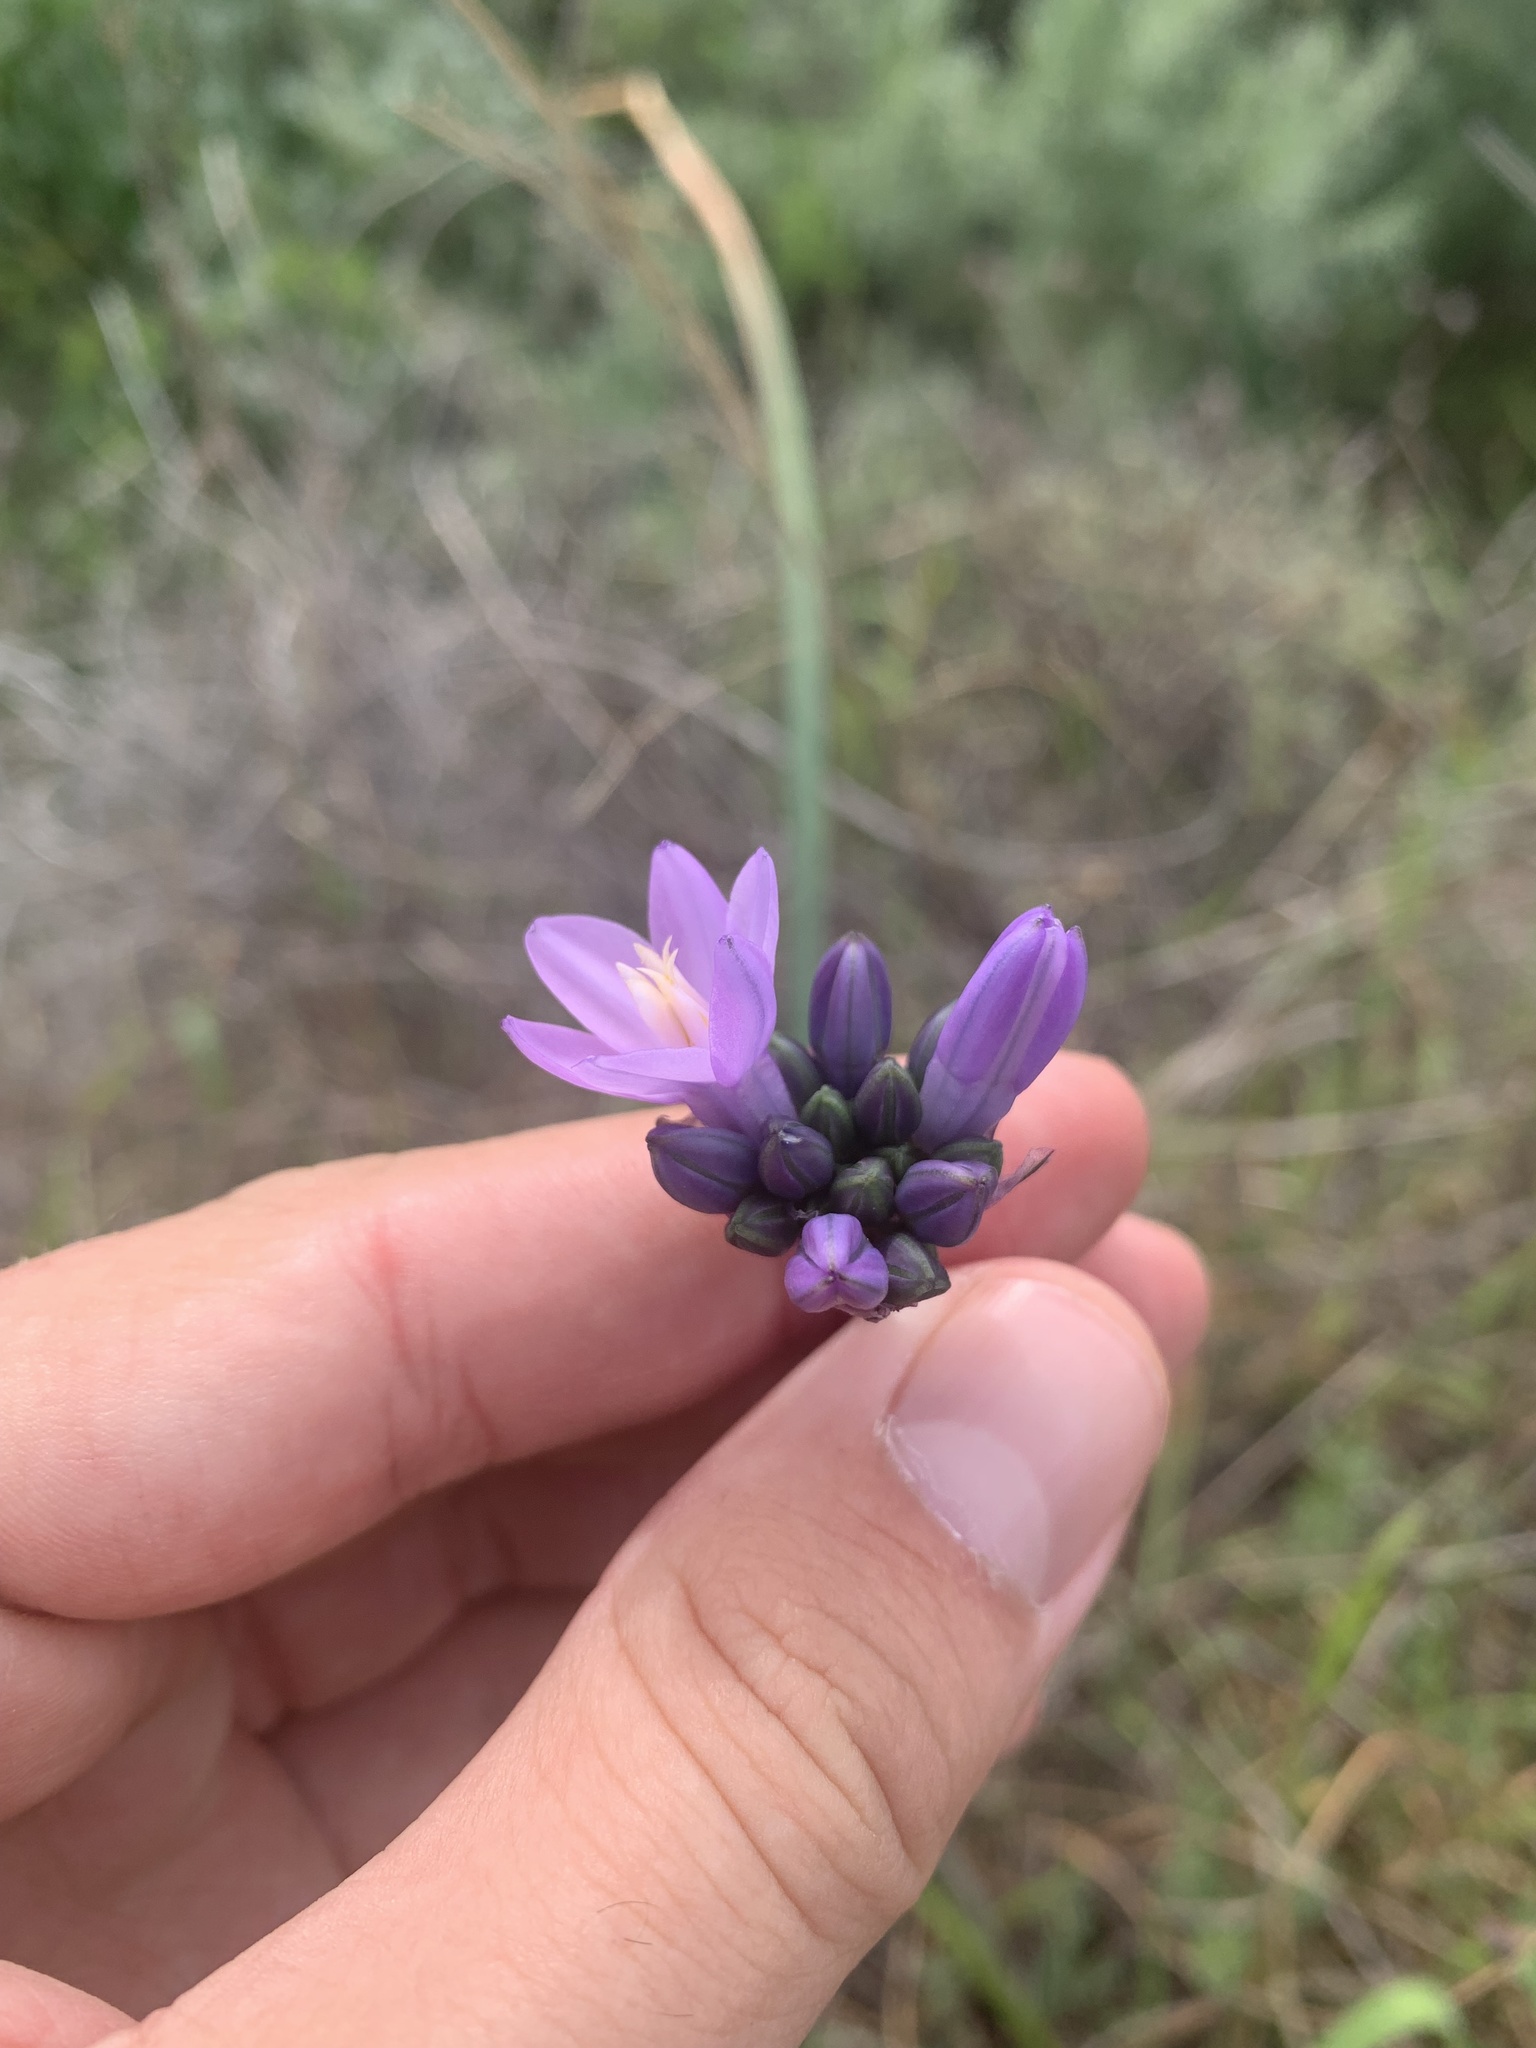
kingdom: Plantae
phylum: Tracheophyta
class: Liliopsida
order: Asparagales
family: Asparagaceae
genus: Dipterostemon
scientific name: Dipterostemon capitatus
